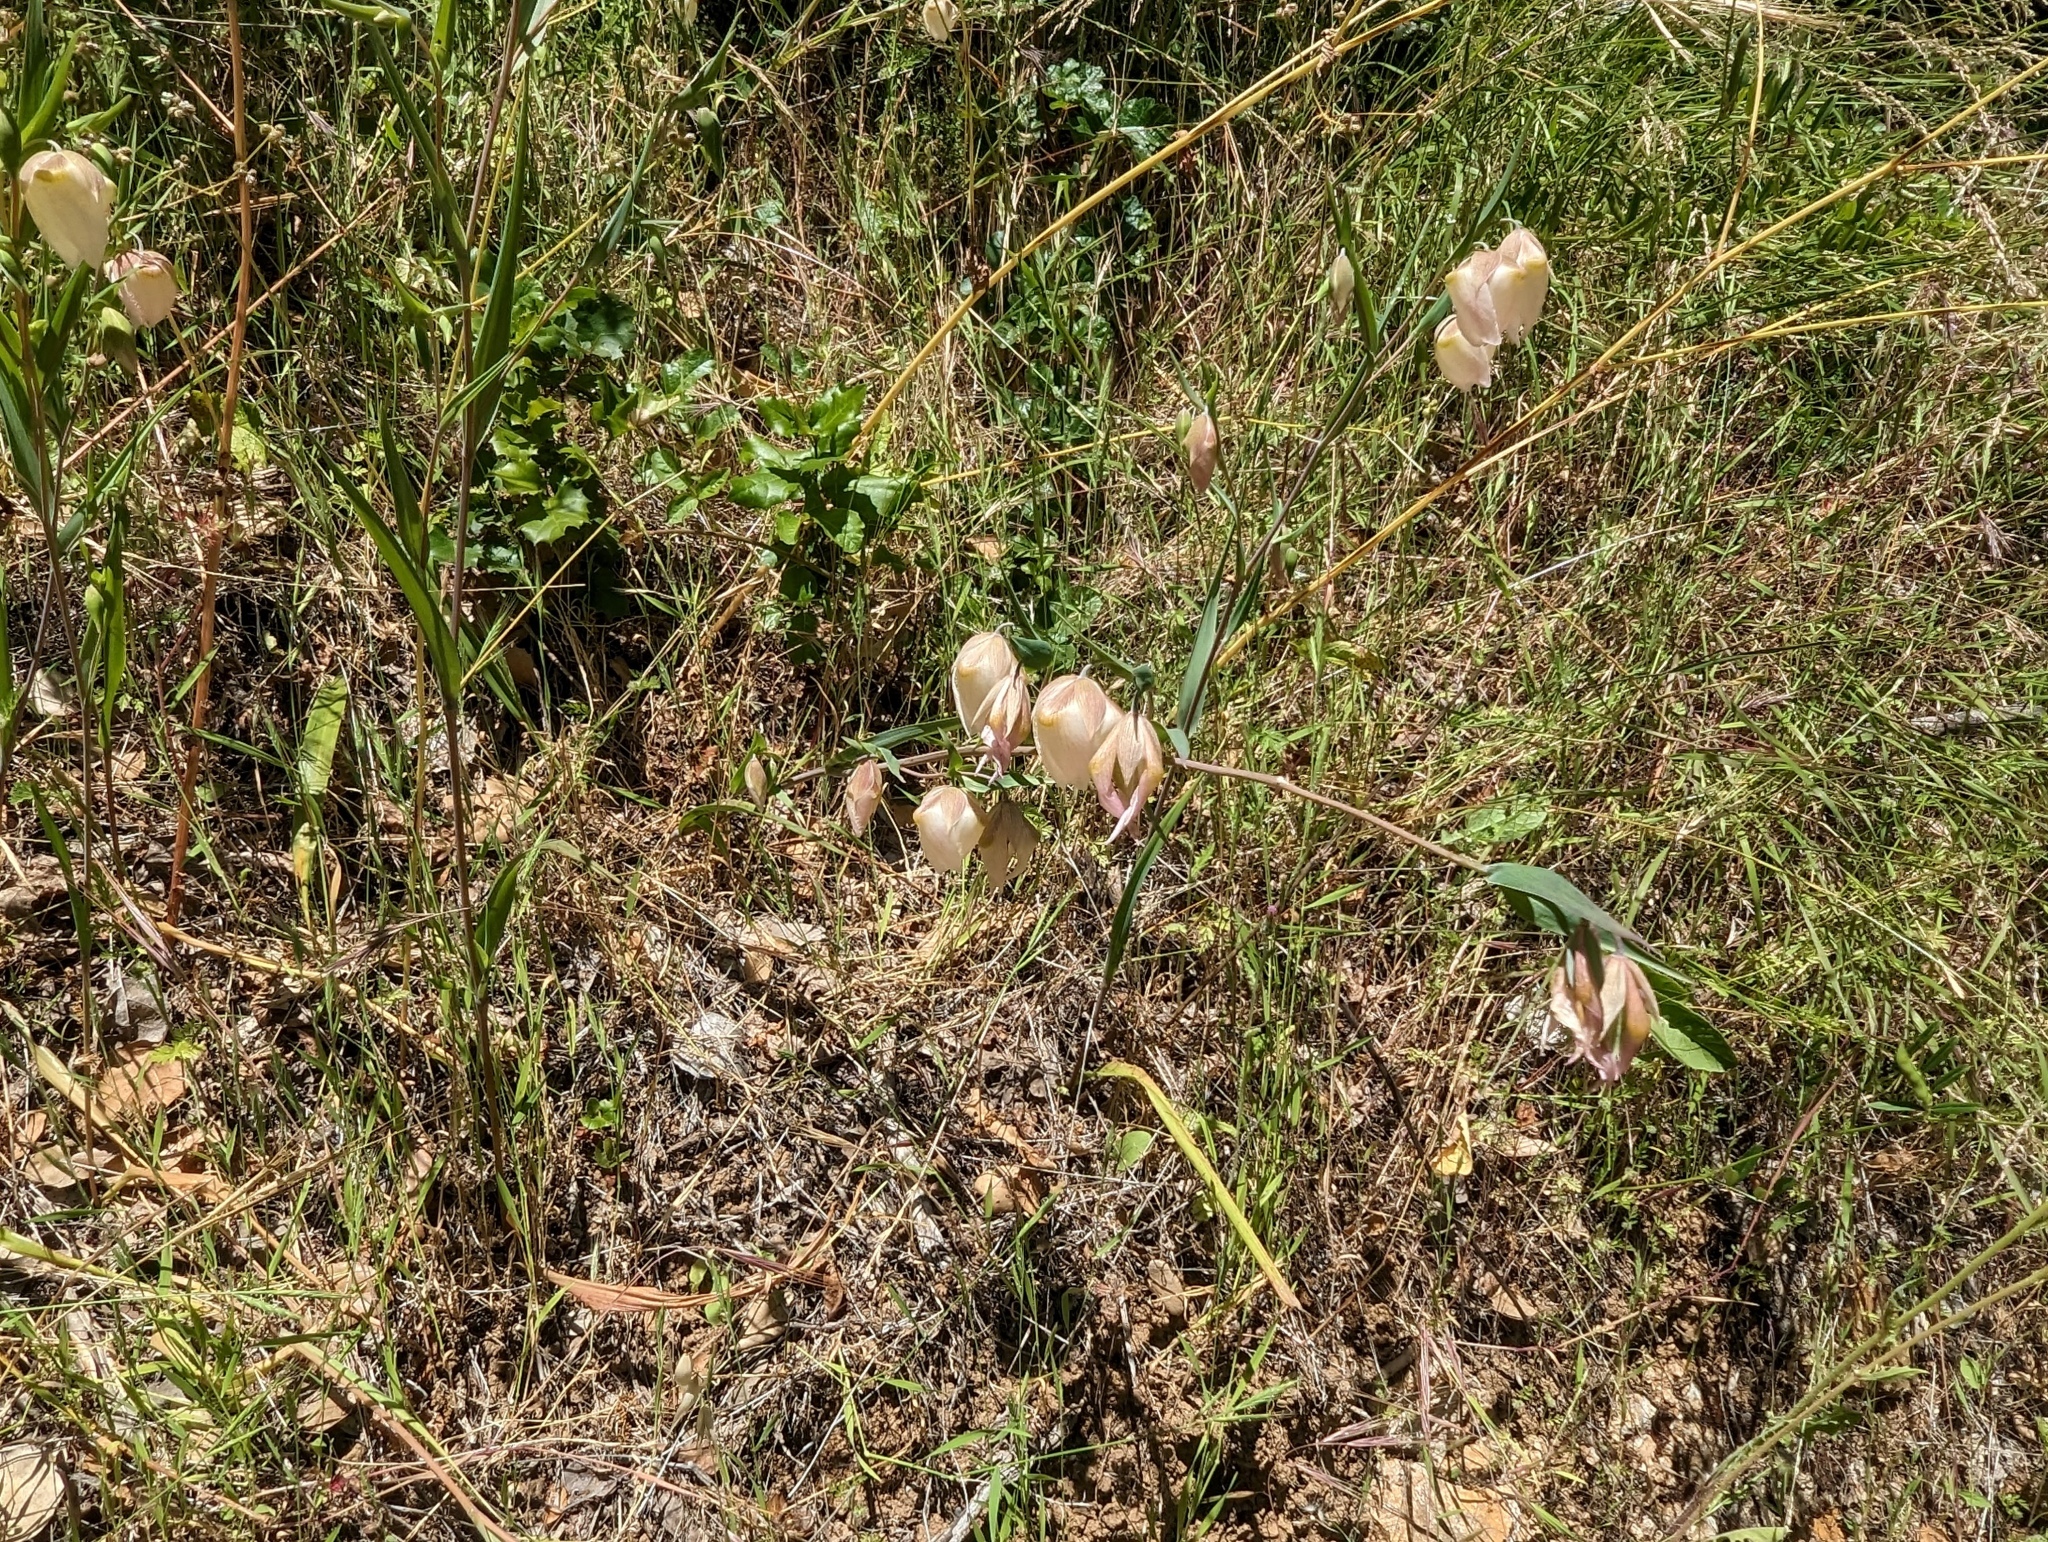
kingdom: Plantae
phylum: Tracheophyta
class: Liliopsida
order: Liliales
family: Liliaceae
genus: Calochortus
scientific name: Calochortus albus
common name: Fairy-lantern
